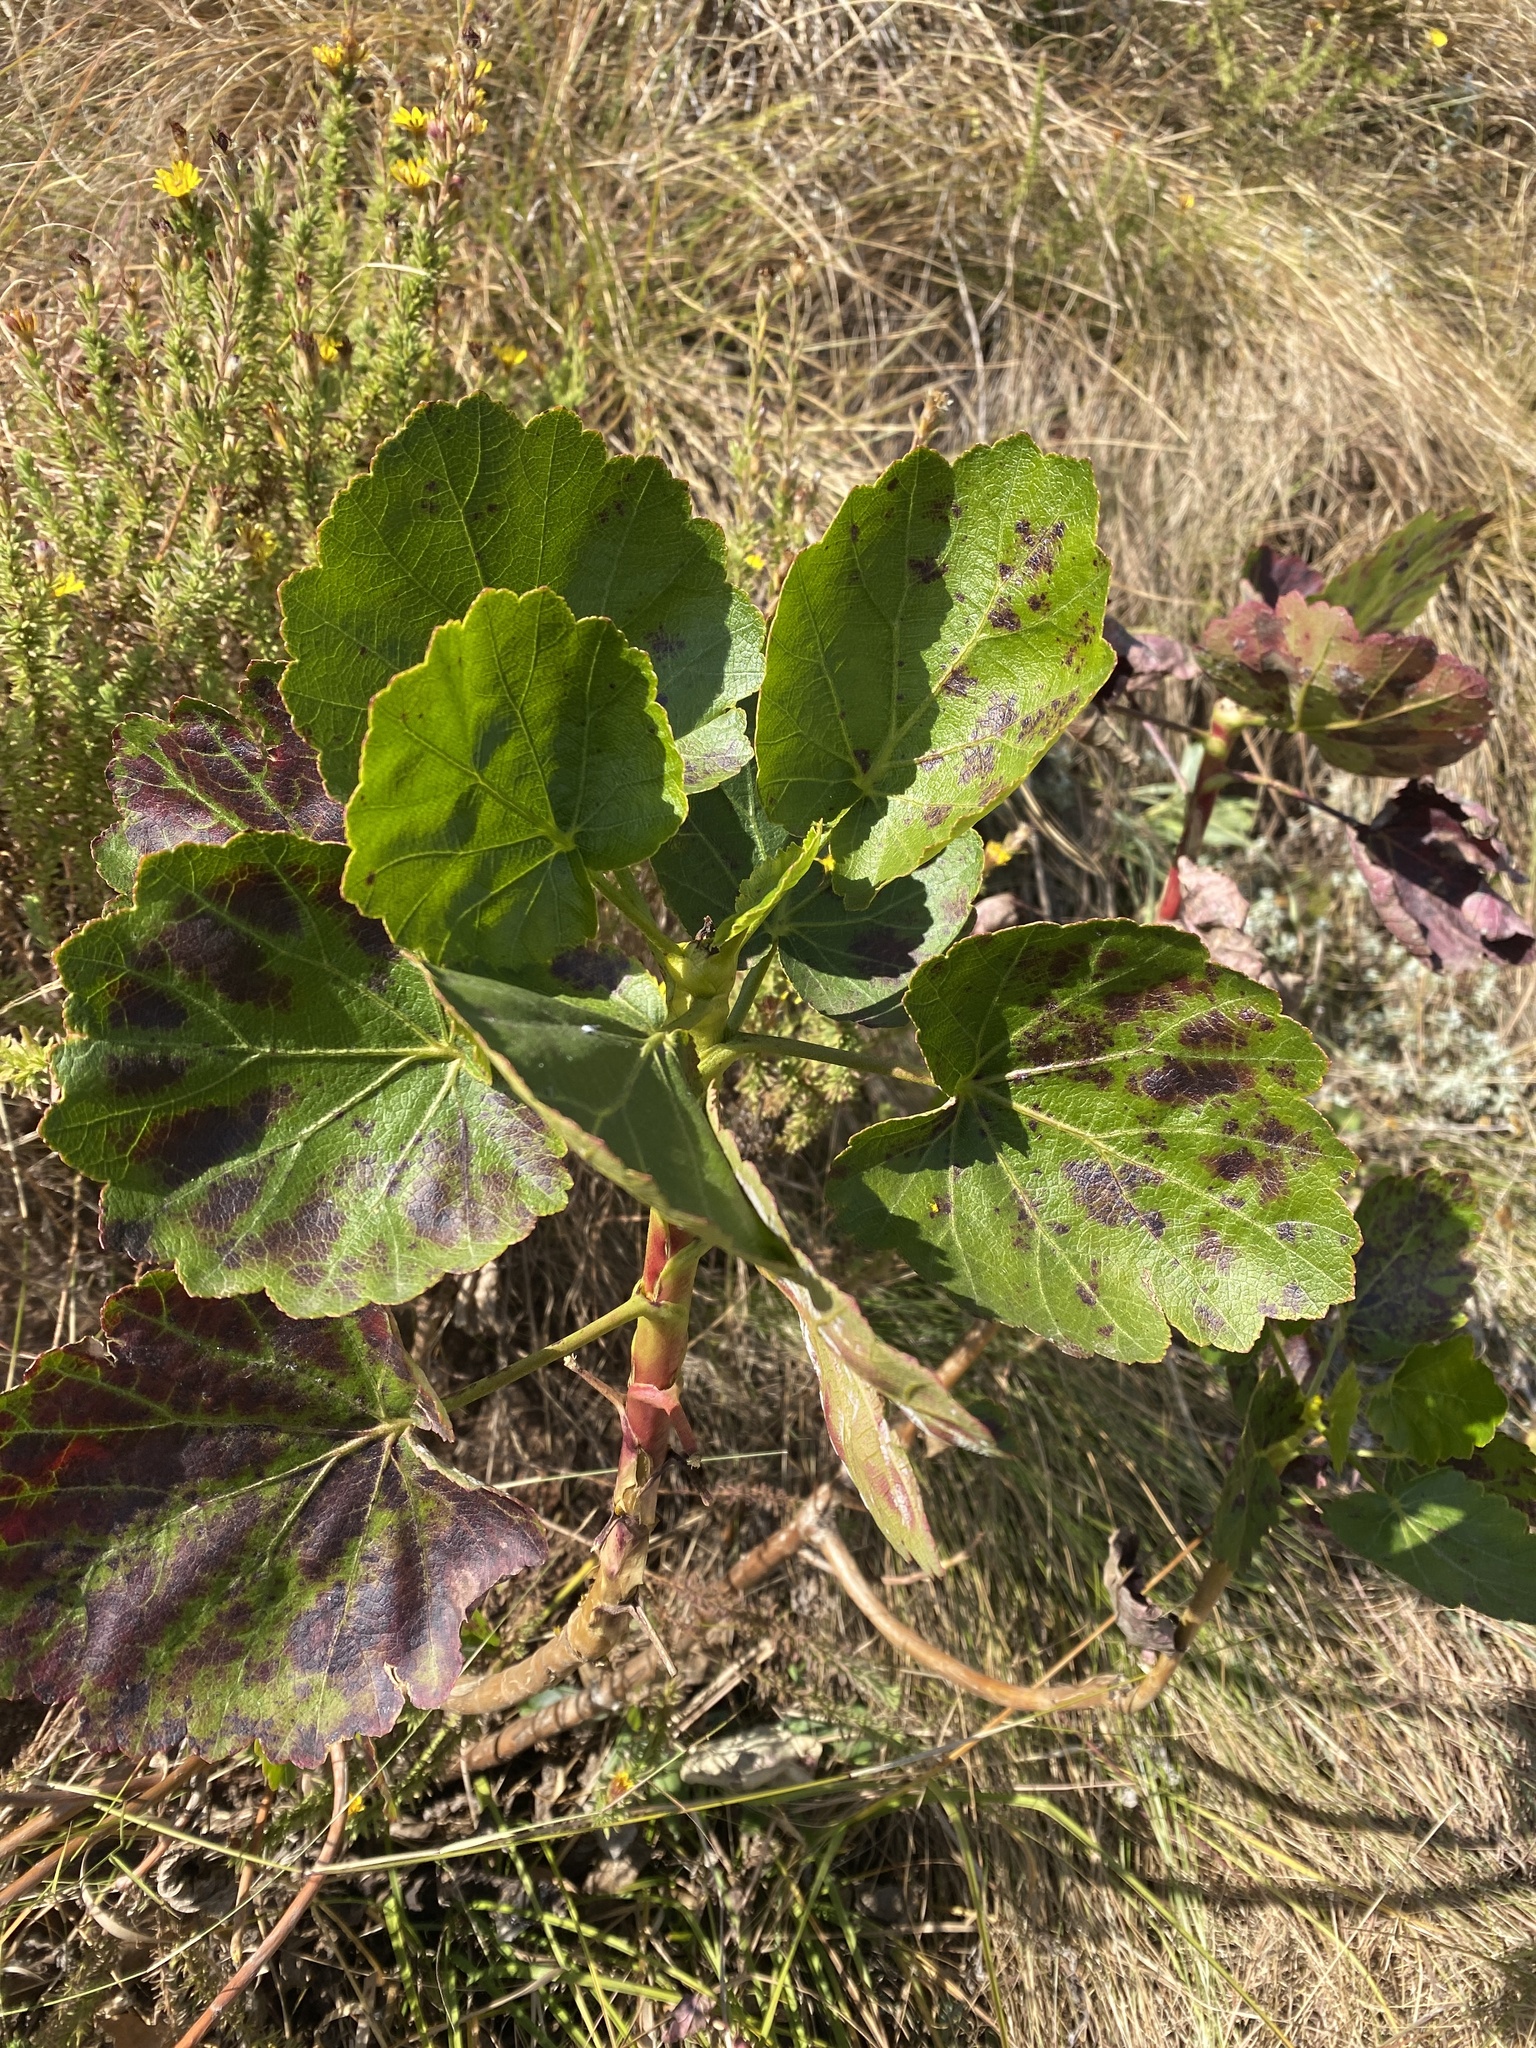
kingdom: Plantae
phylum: Tracheophyta
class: Magnoliopsida
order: Geraniales
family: Francoaceae
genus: Greyia
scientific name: Greyia sutherlandii
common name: Glossy bottlebrush
